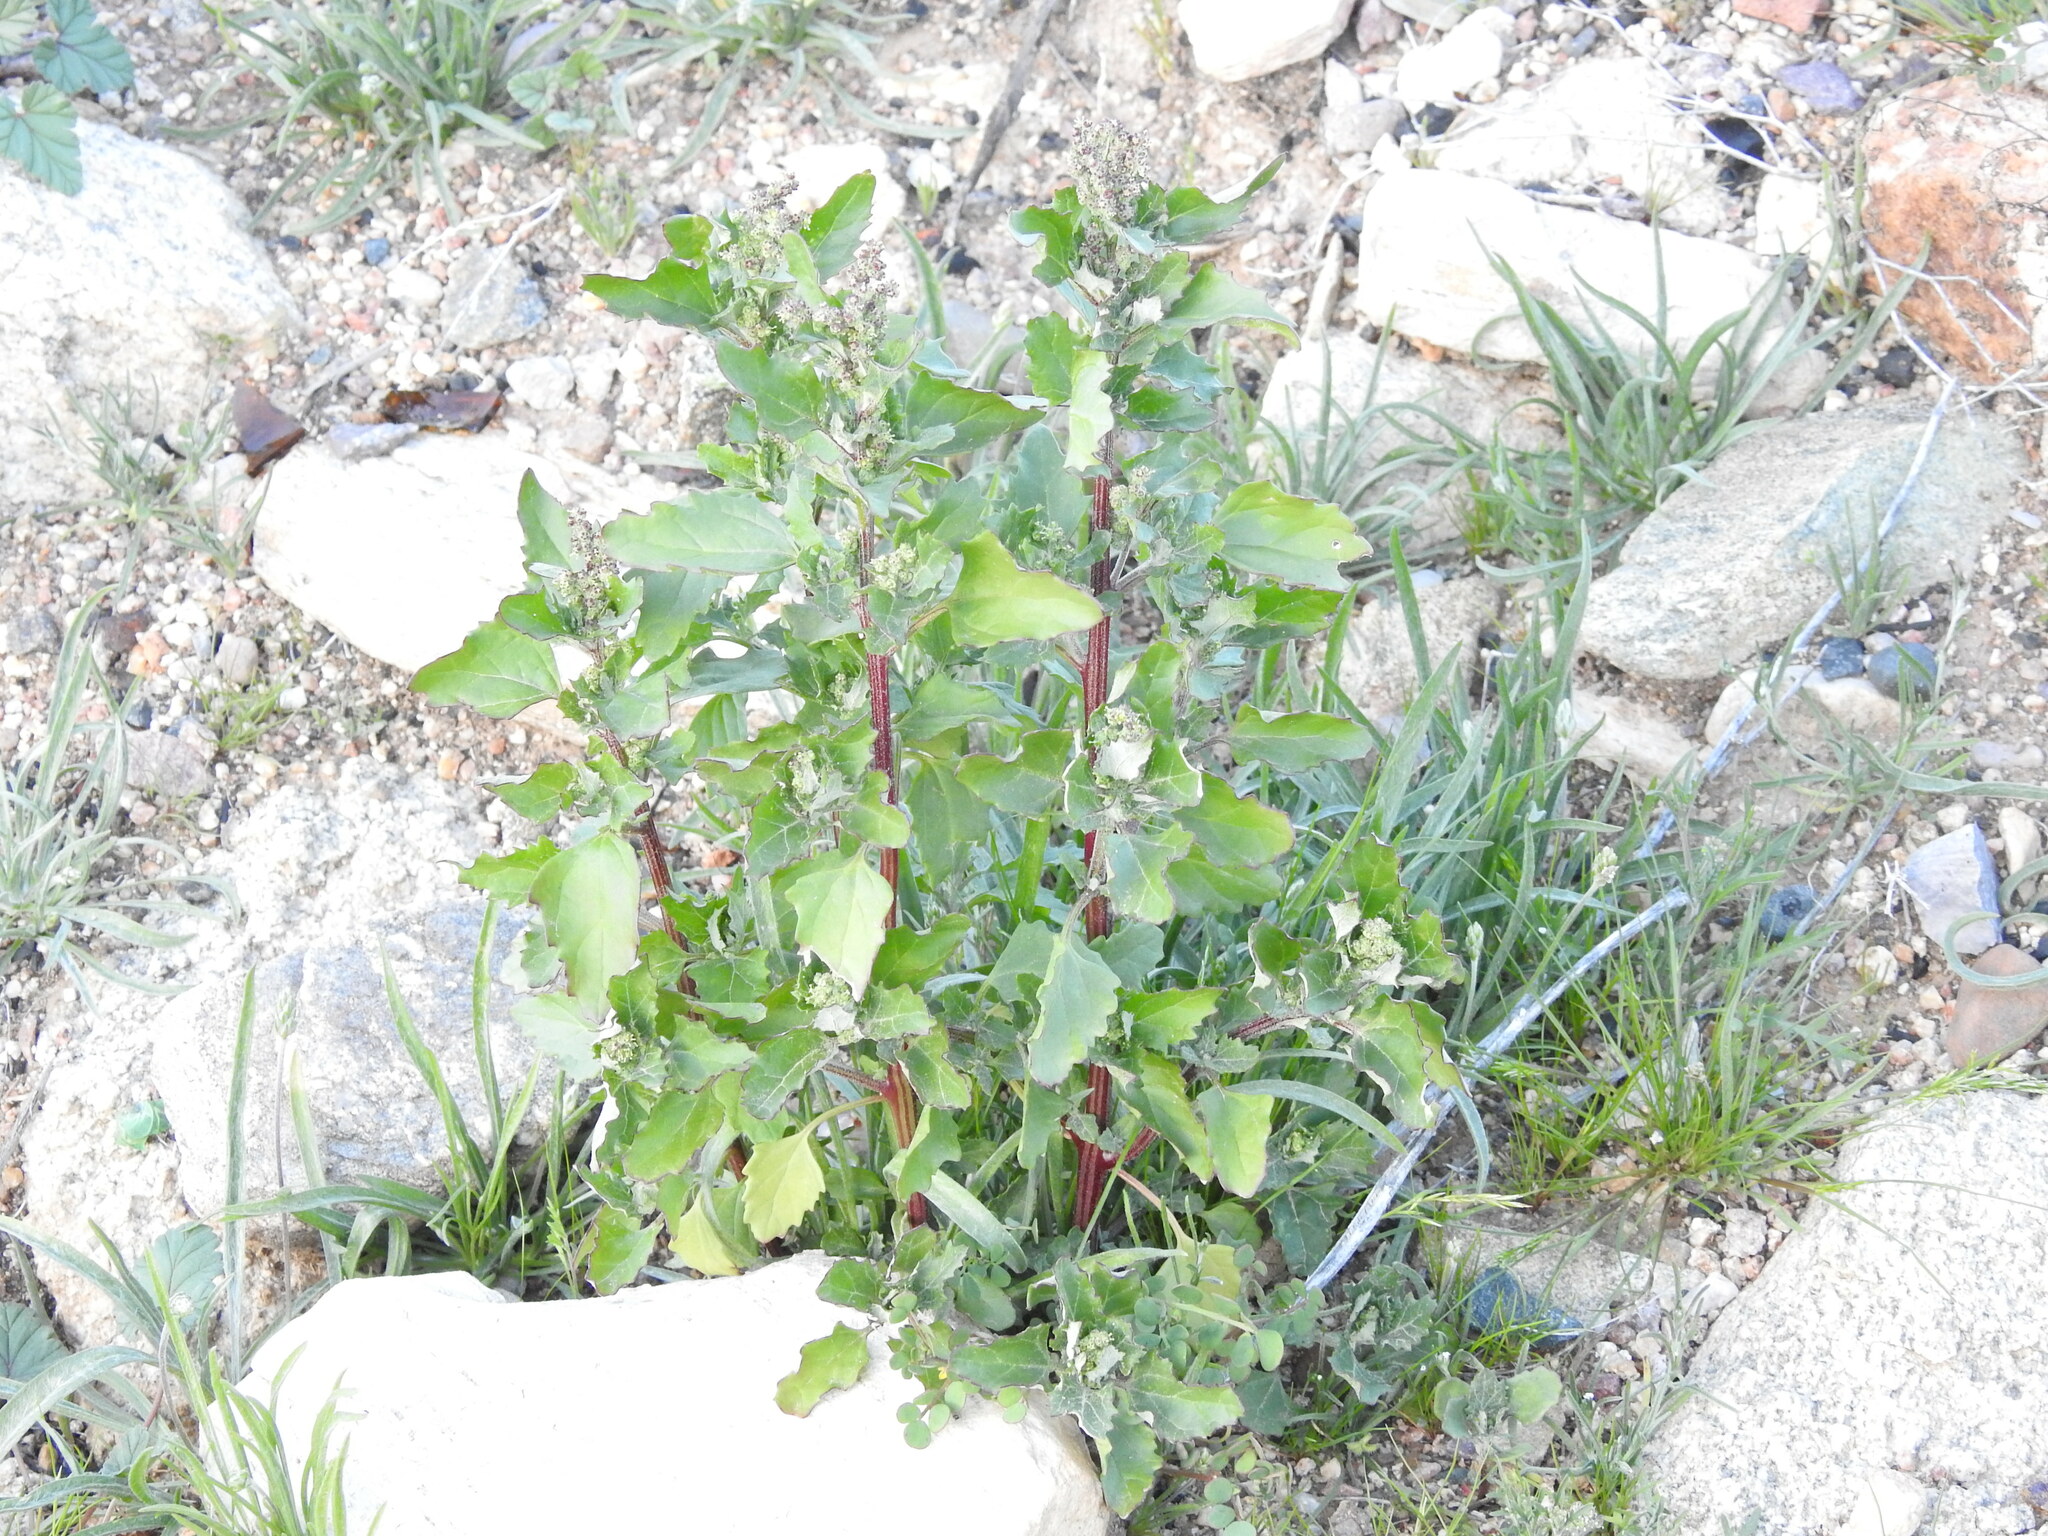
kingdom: Plantae
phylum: Tracheophyta
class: Magnoliopsida
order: Caryophyllales
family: Amaranthaceae
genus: Chenopodiastrum
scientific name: Chenopodiastrum murale
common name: Sowbane
